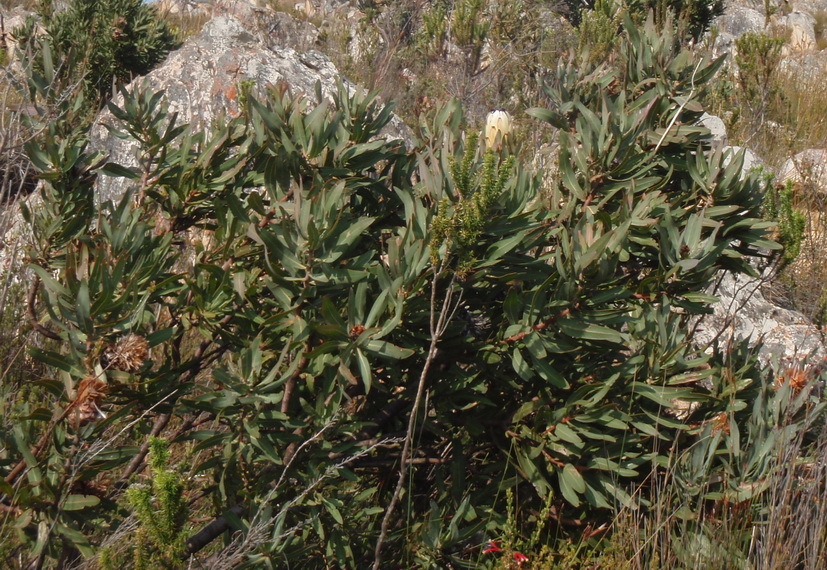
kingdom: Plantae
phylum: Tracheophyta
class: Magnoliopsida
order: Proteales
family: Proteaceae
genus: Protea
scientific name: Protea neriifolia
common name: Blue sugarbush
